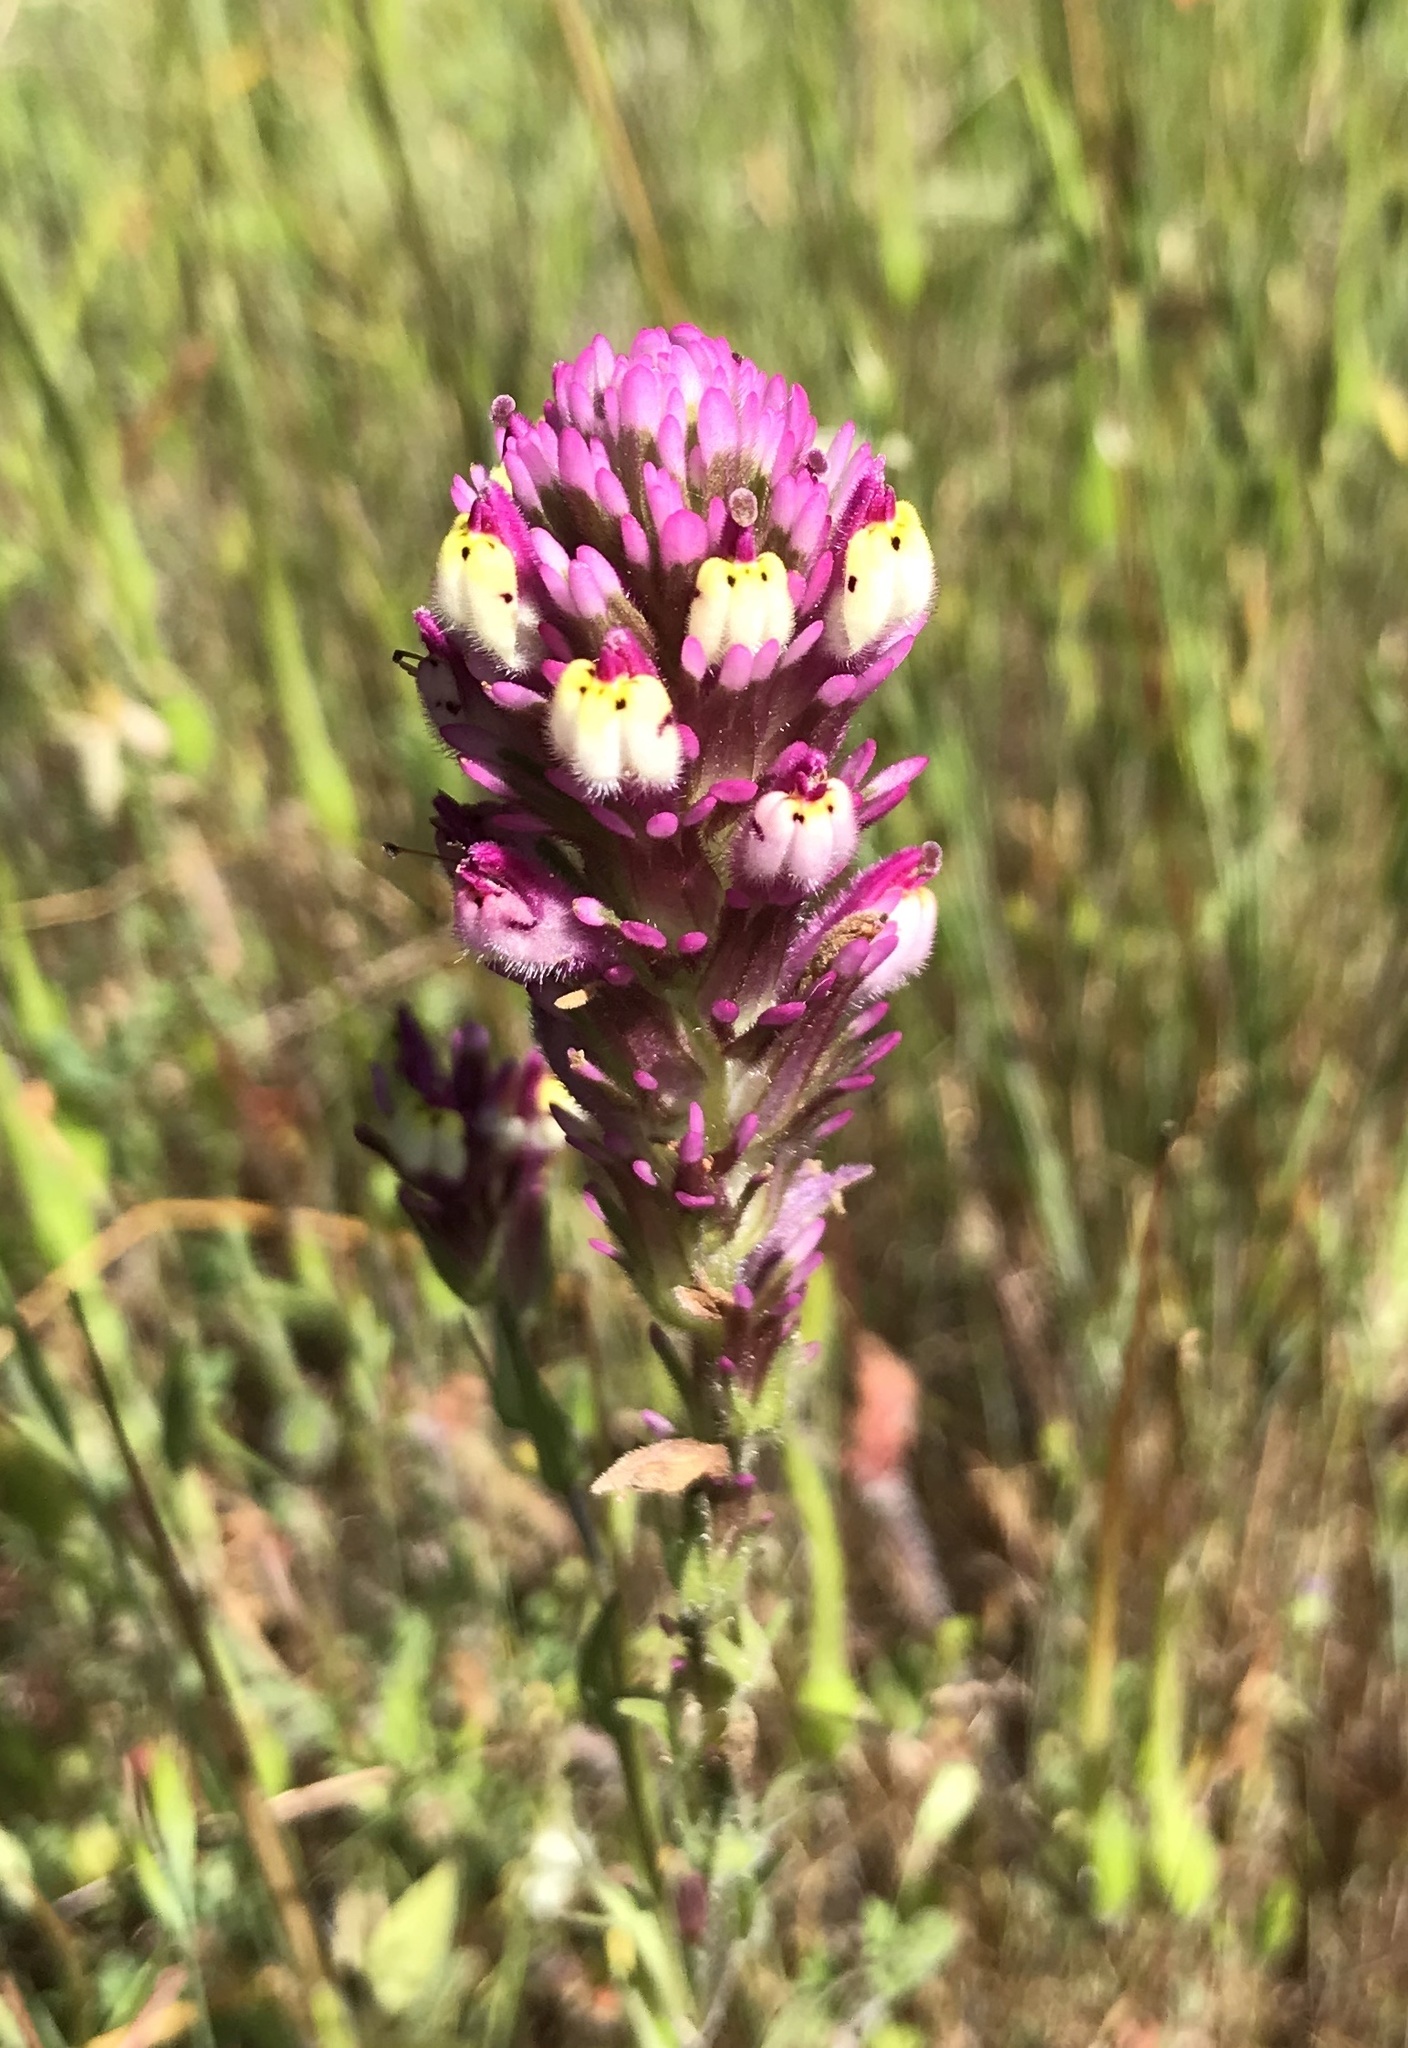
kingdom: Plantae
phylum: Tracheophyta
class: Magnoliopsida
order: Lamiales
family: Orobanchaceae
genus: Castilleja
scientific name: Castilleja exserta
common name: Purple owl-clover
